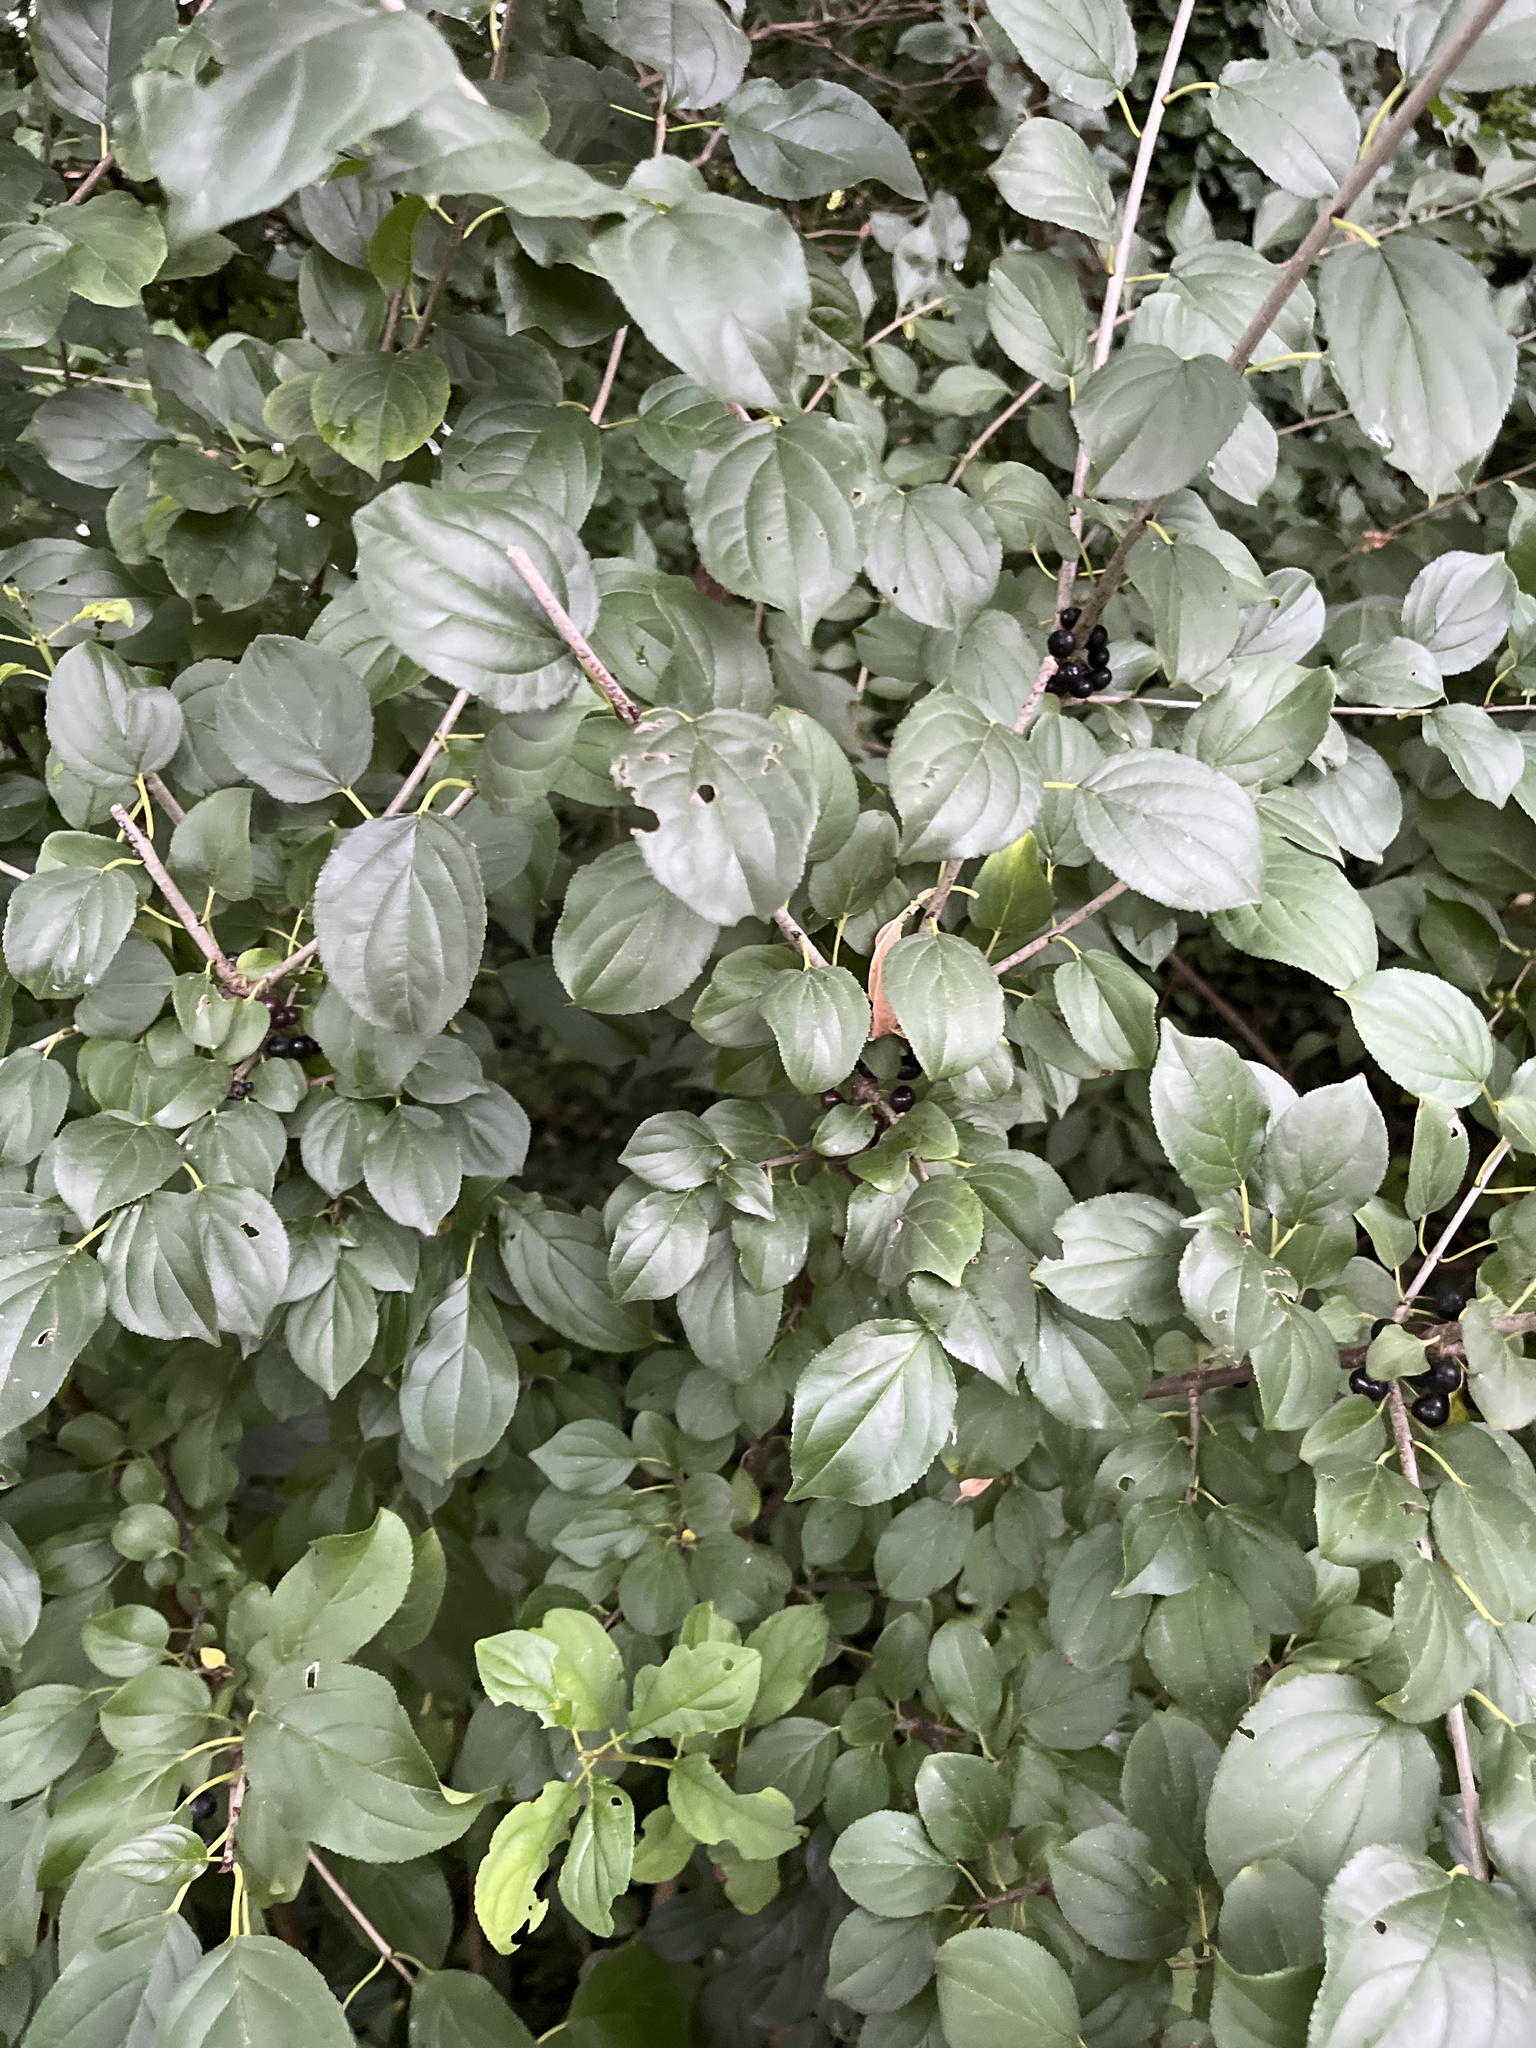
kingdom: Plantae
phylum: Tracheophyta
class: Magnoliopsida
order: Rosales
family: Rhamnaceae
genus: Rhamnus
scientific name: Rhamnus cathartica
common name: Common buckthorn
